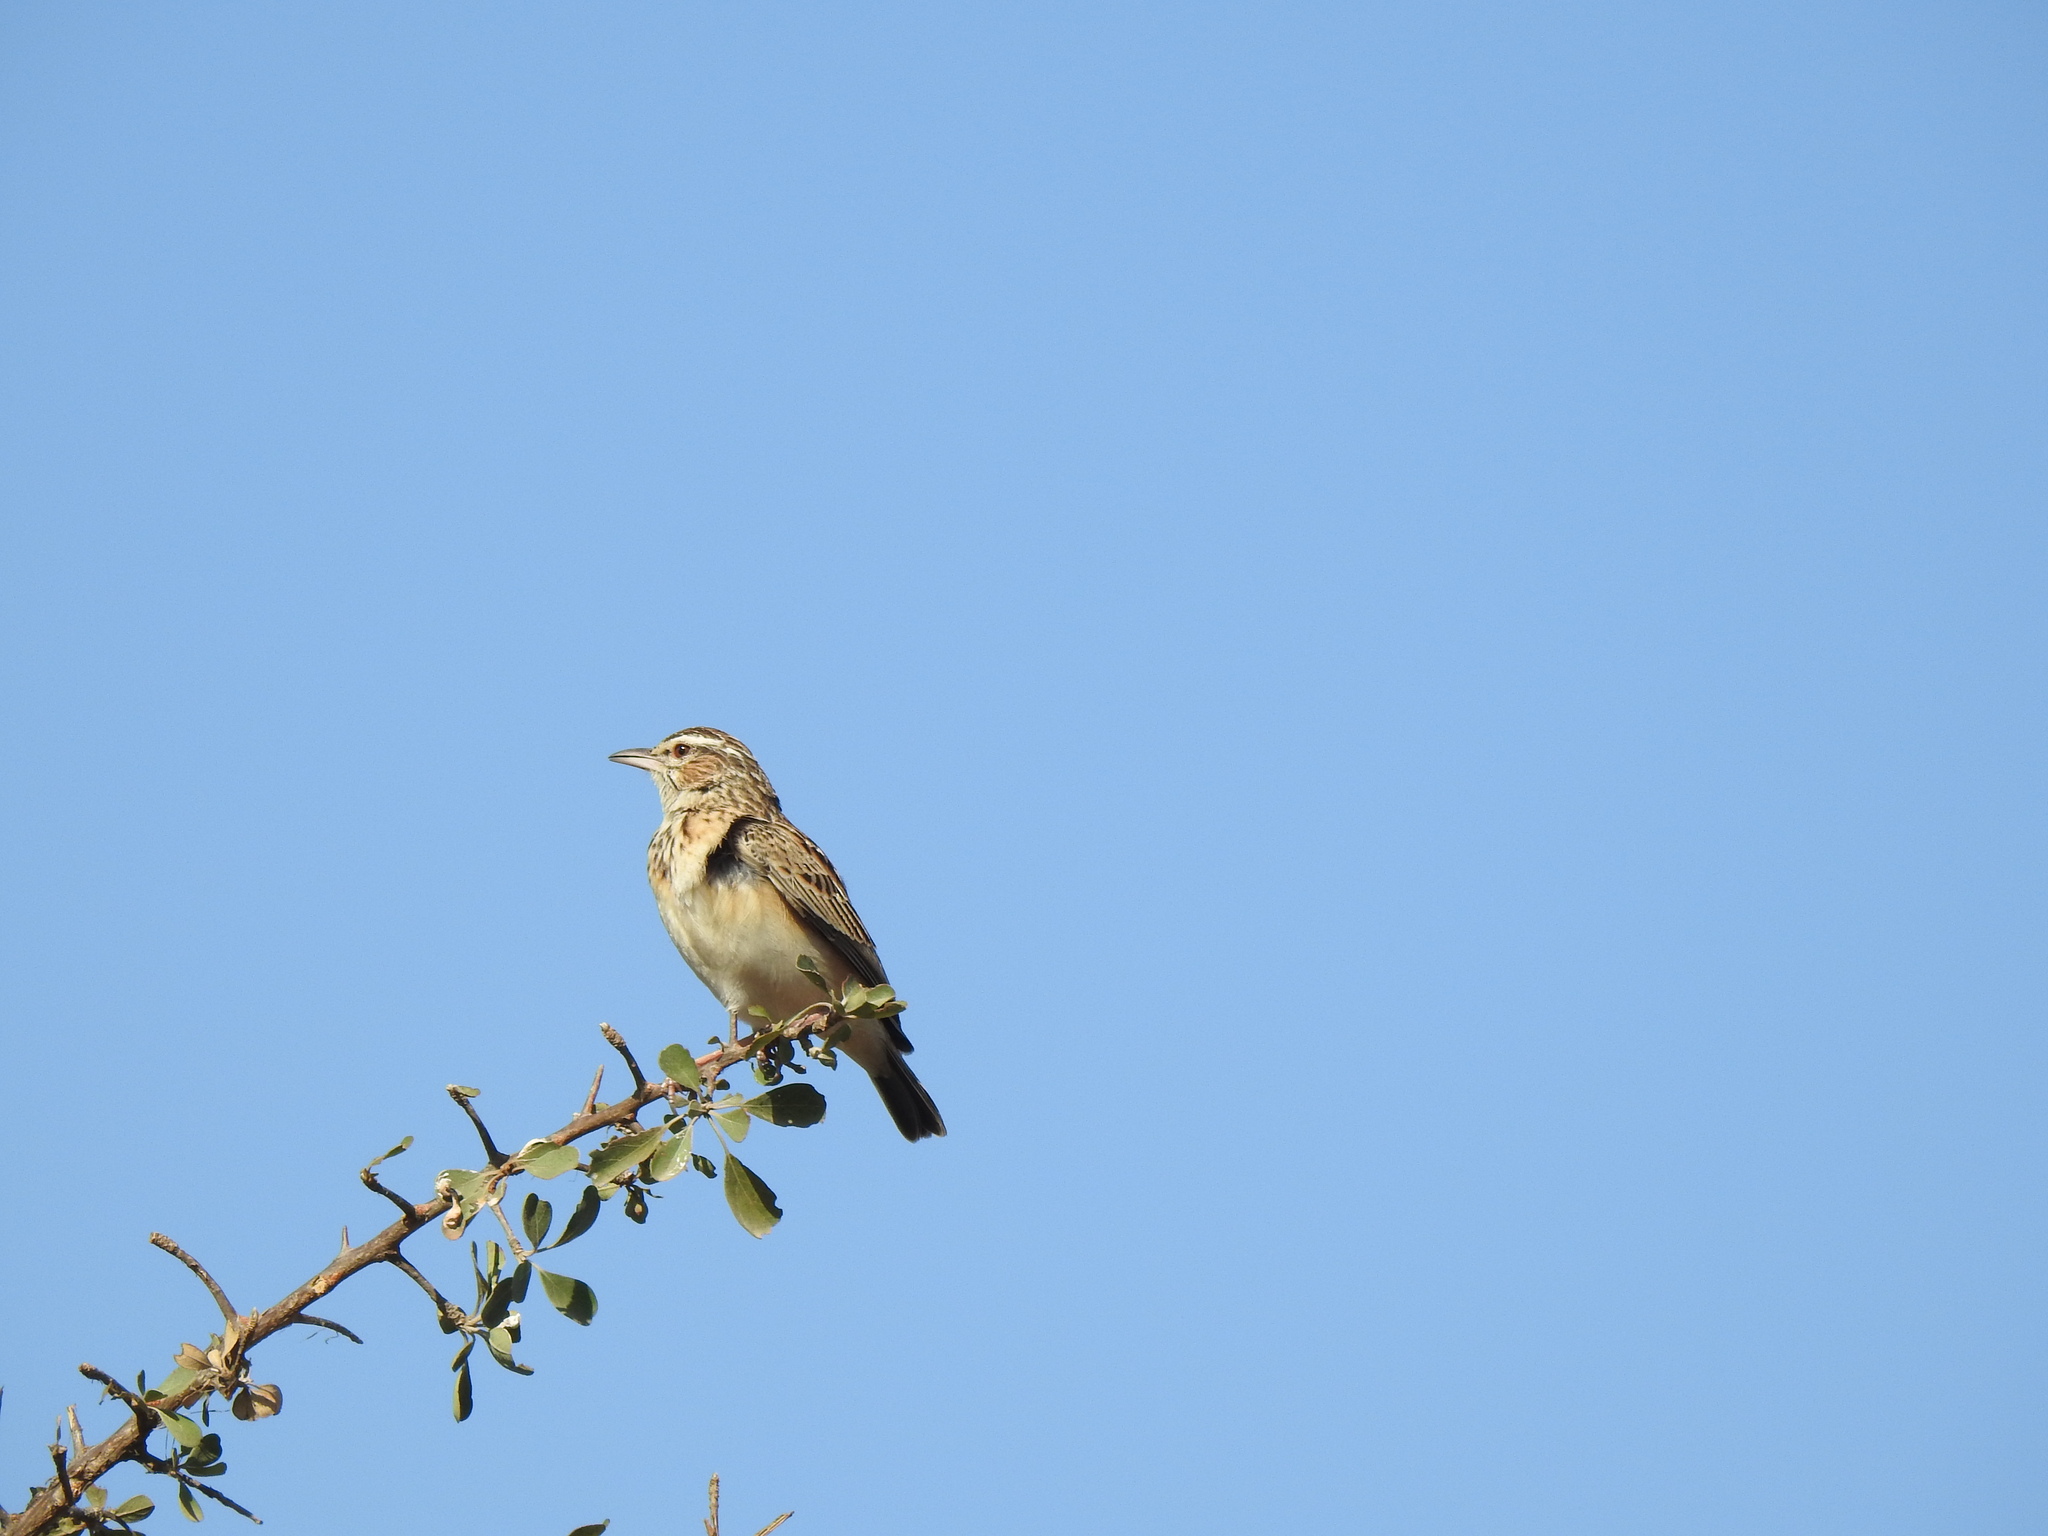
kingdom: Animalia
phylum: Chordata
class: Aves
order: Passeriformes
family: Alaudidae
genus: Calendulauda
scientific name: Calendulauda sabota
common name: Sabota lark
